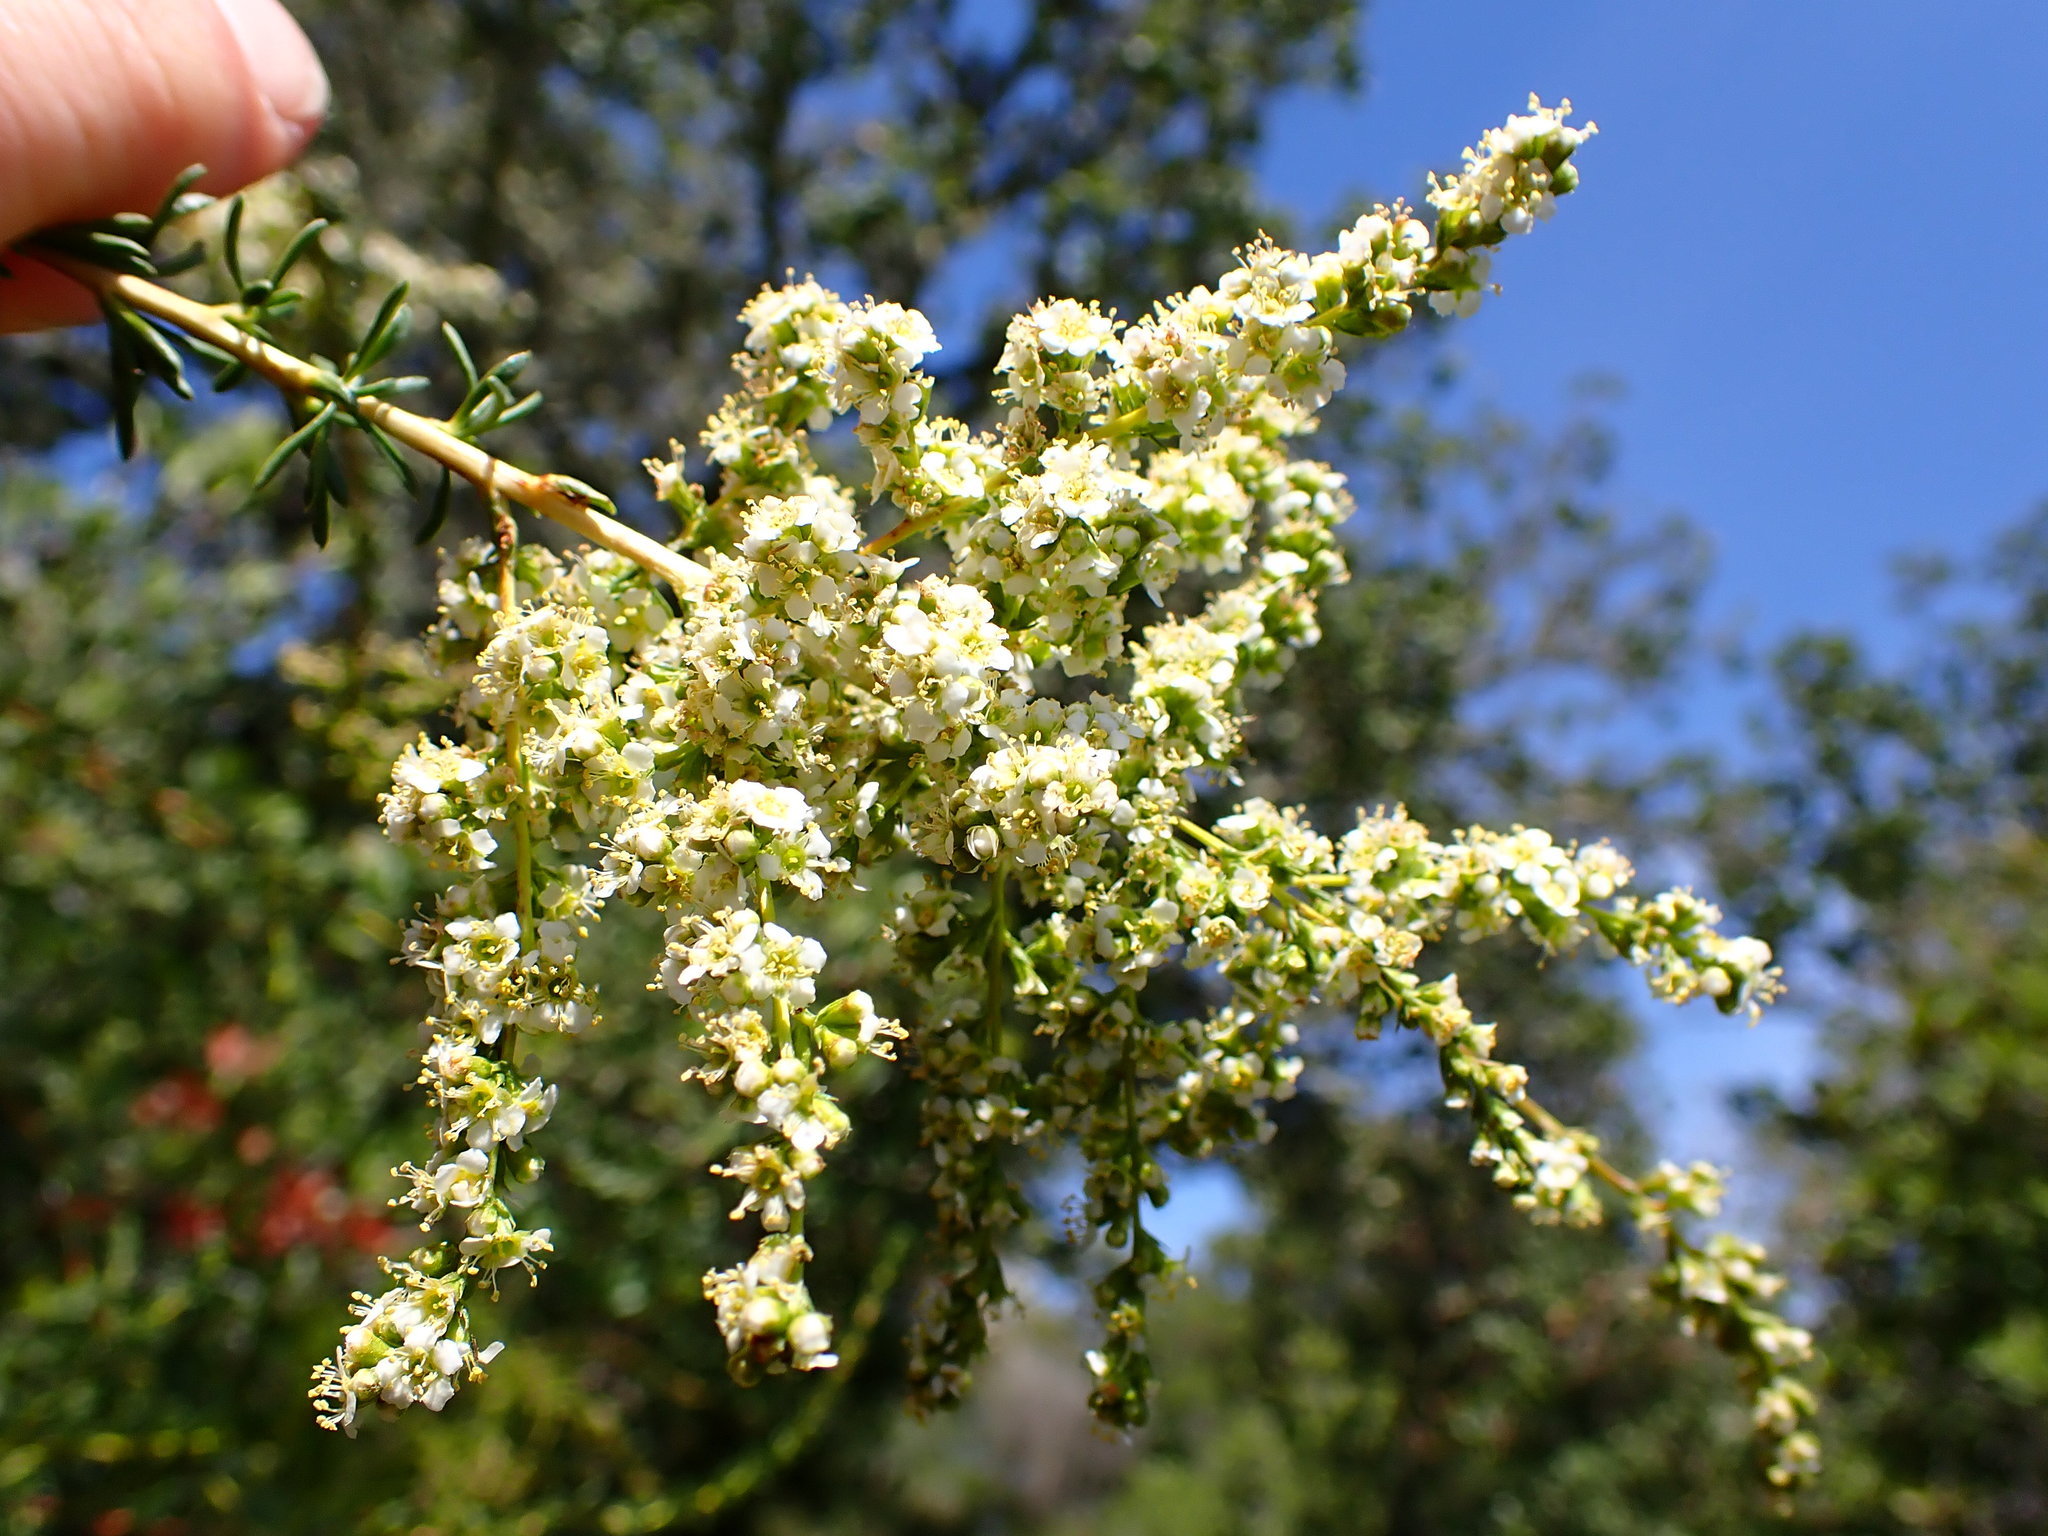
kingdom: Plantae
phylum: Tracheophyta
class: Magnoliopsida
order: Rosales
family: Rosaceae
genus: Adenostoma
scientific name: Adenostoma fasciculatum
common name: Chamise
